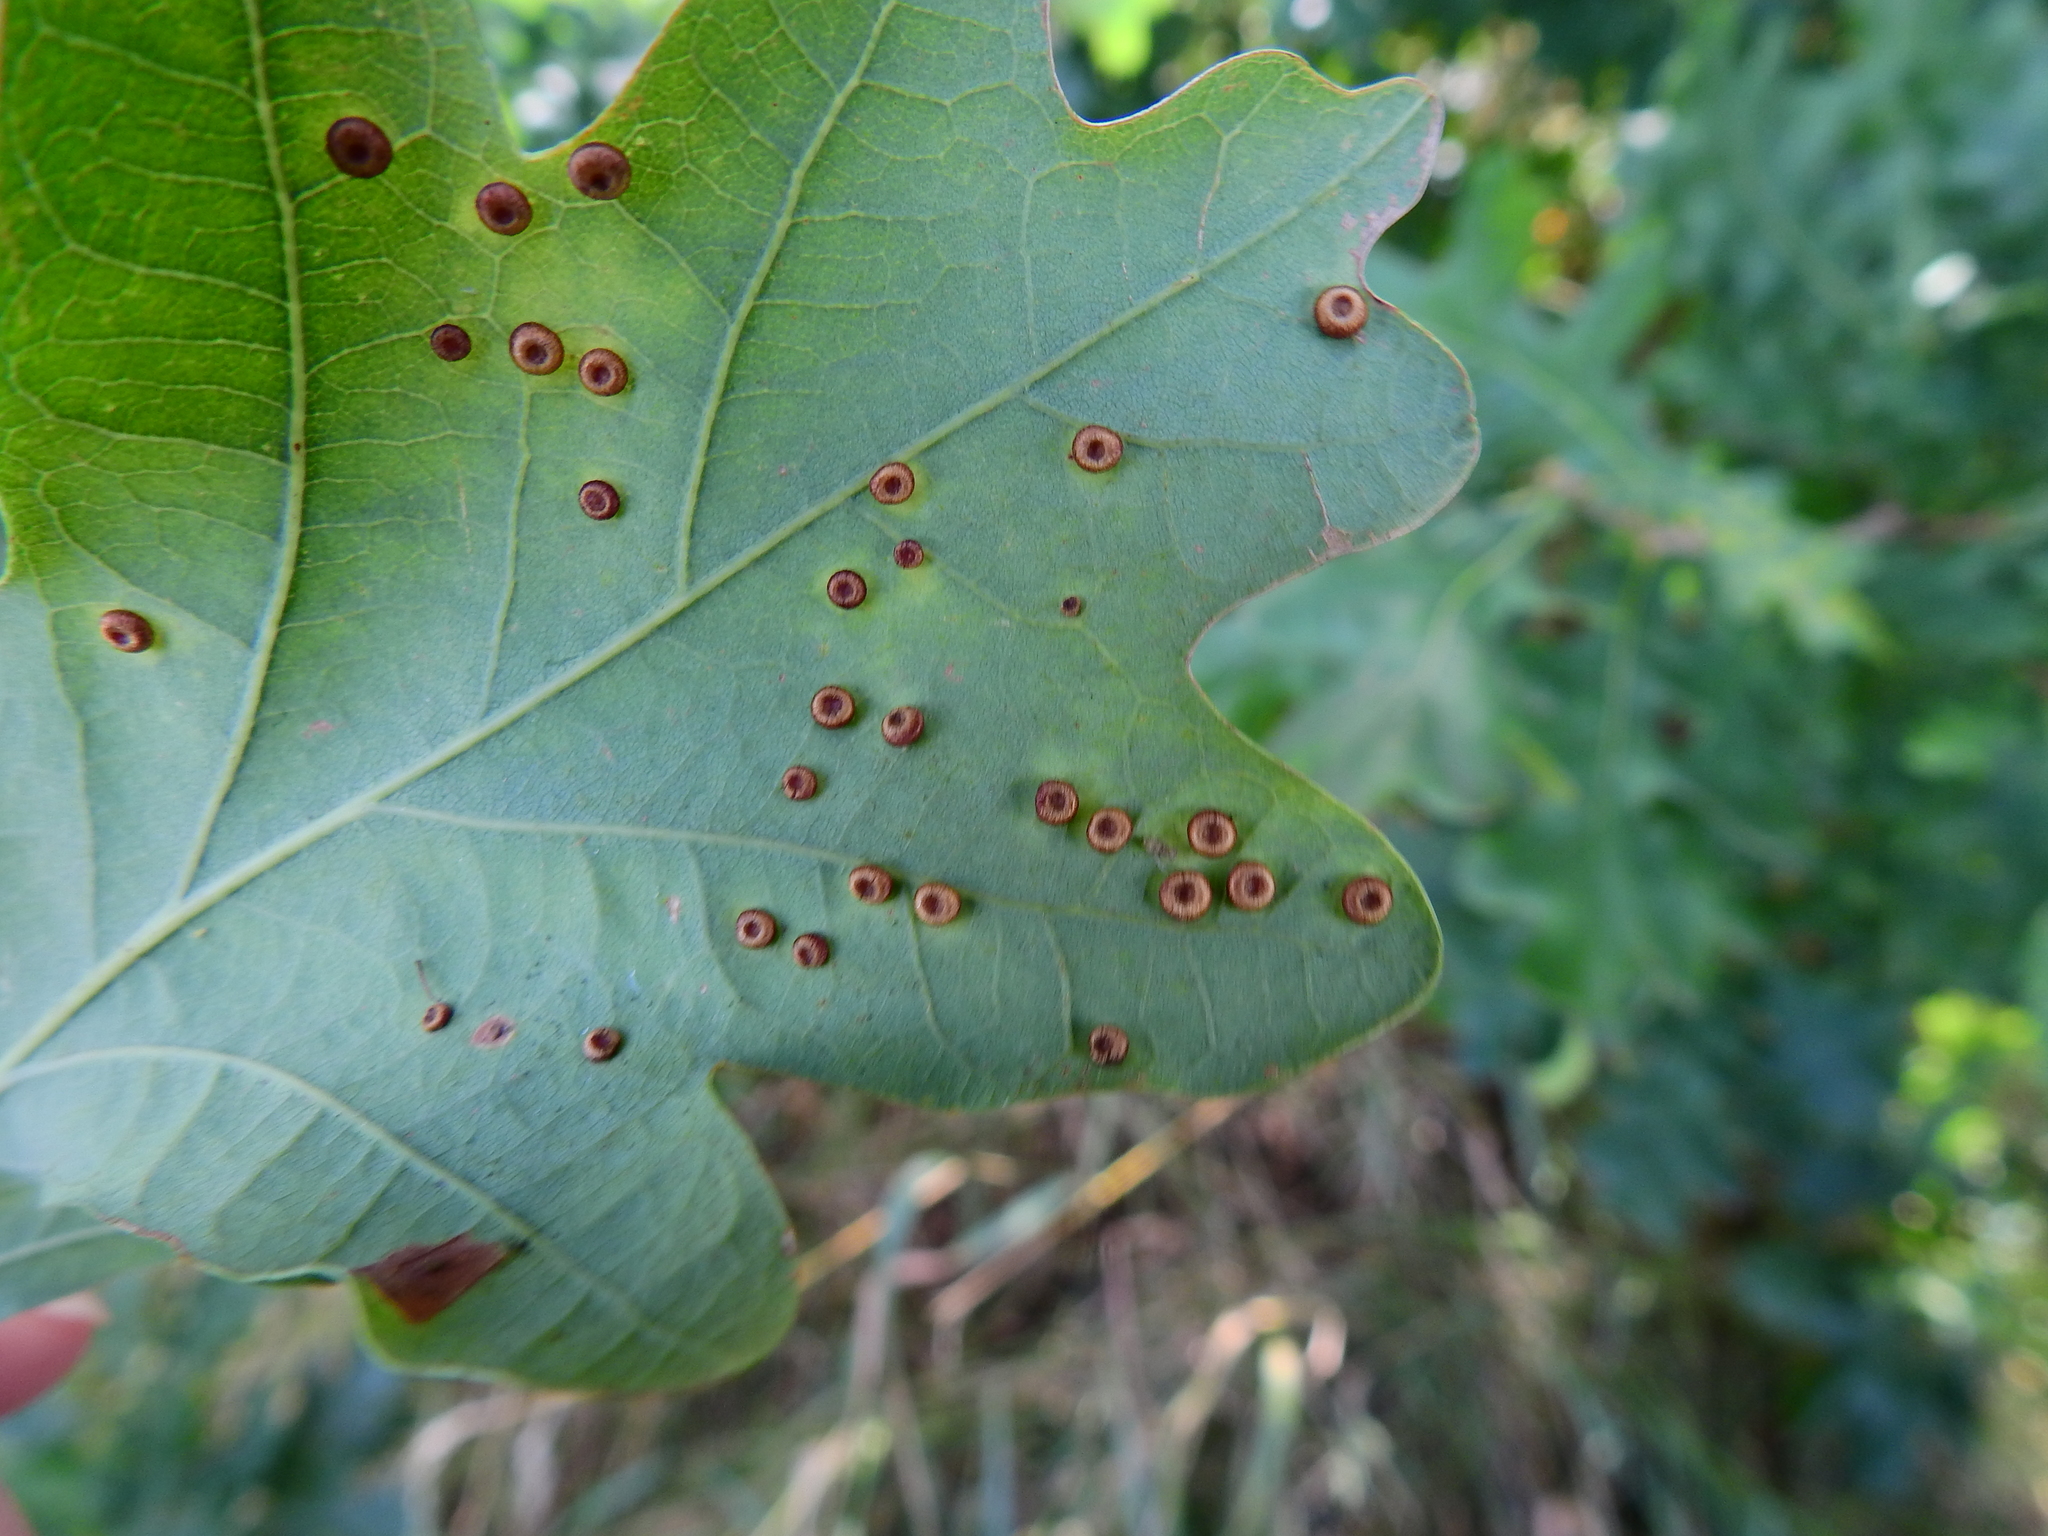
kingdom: Animalia
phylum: Arthropoda
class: Insecta
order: Hymenoptera
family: Cynipidae
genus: Neuroterus
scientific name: Neuroterus numismalis
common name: Silk-button spangle gall
